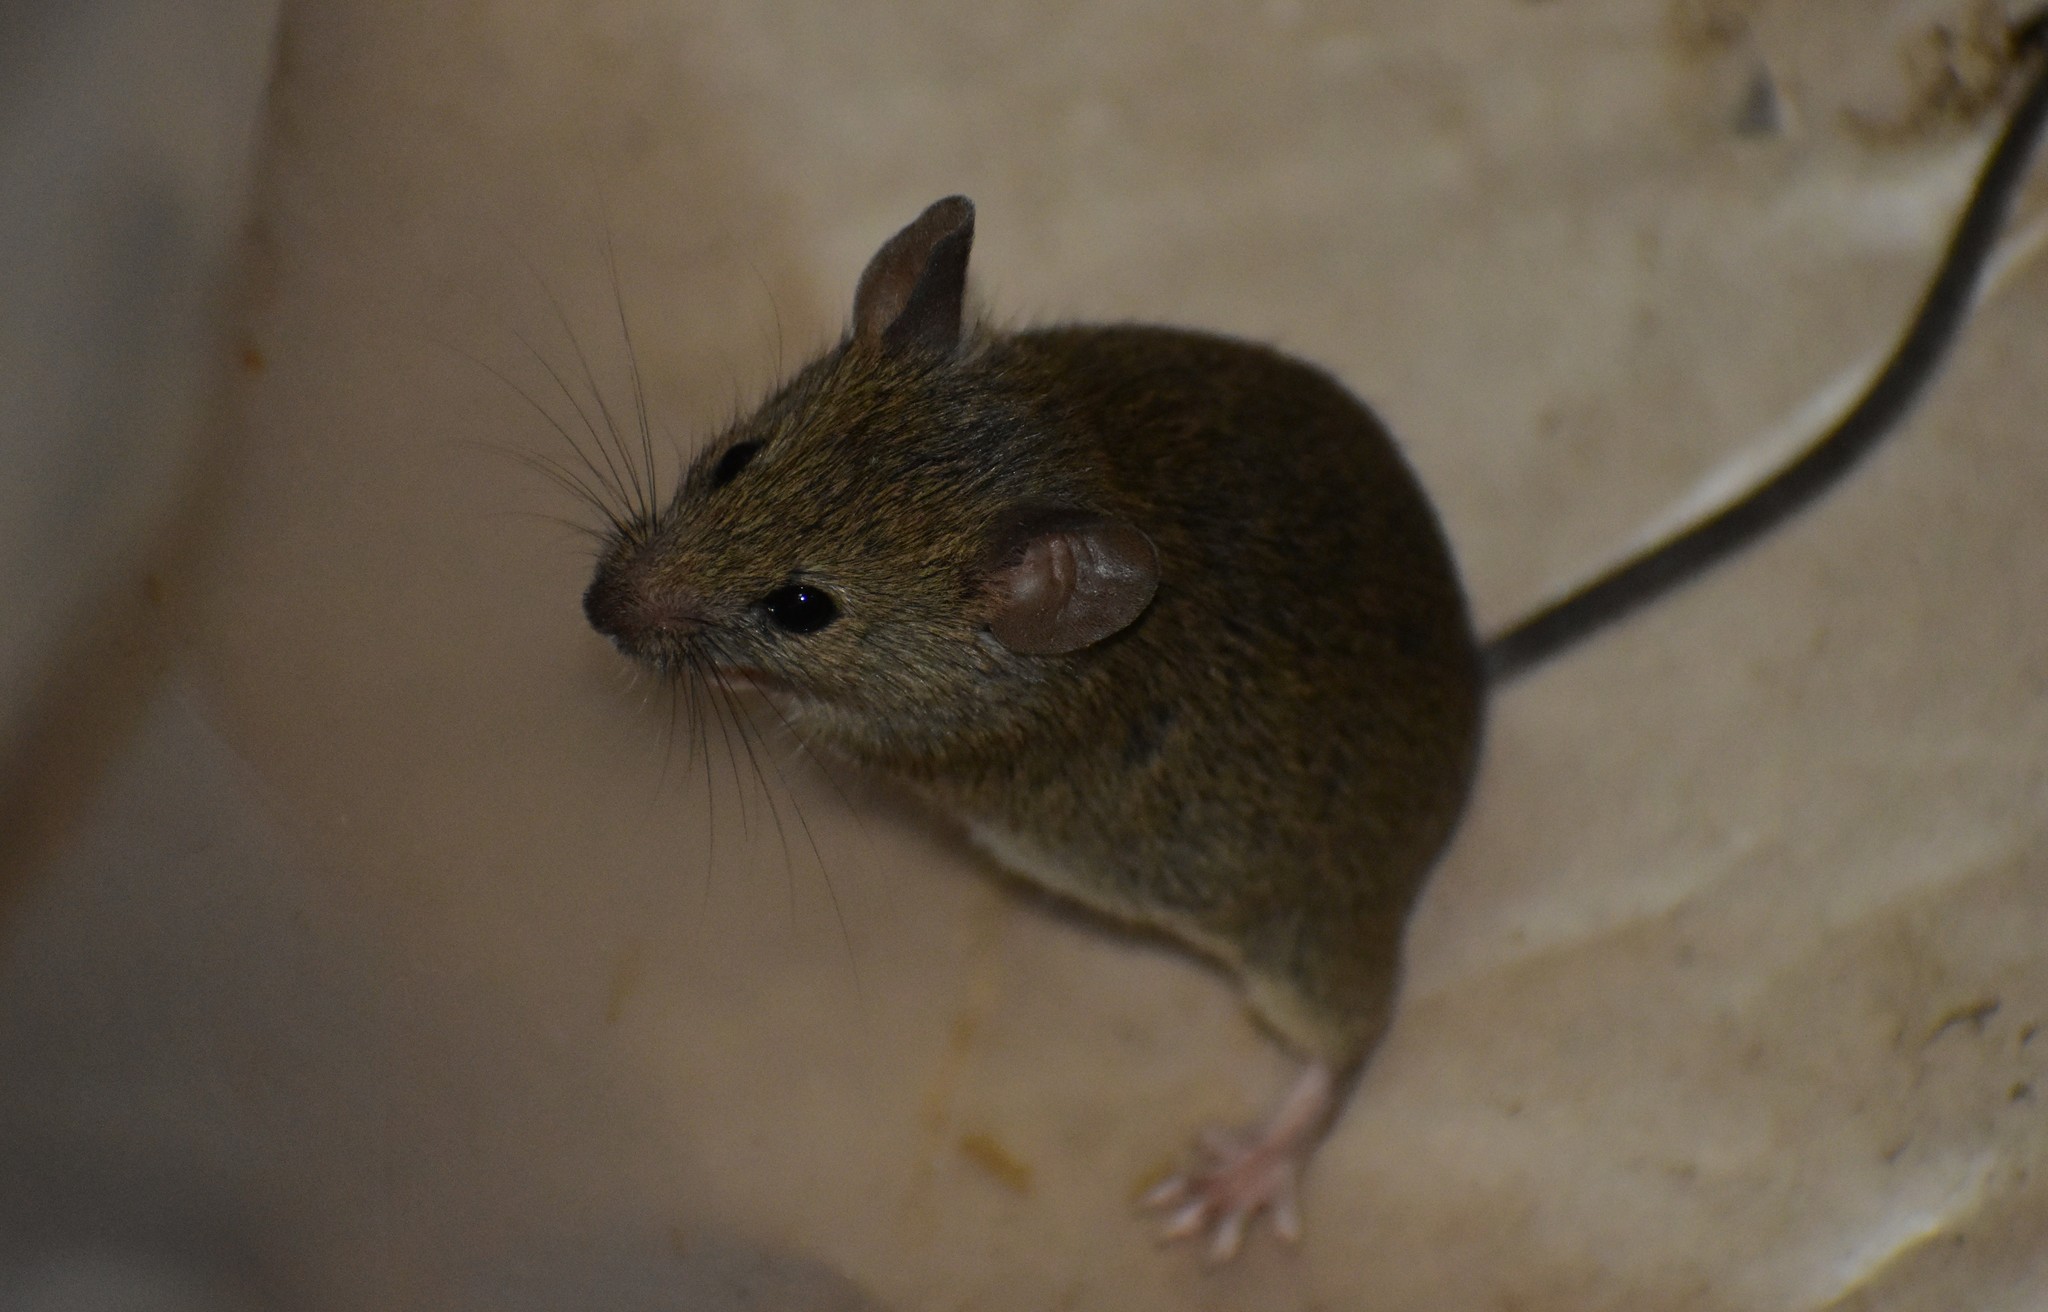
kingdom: Animalia
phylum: Chordata
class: Mammalia
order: Rodentia
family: Muridae
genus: Mus
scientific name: Mus musculus
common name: House mouse
